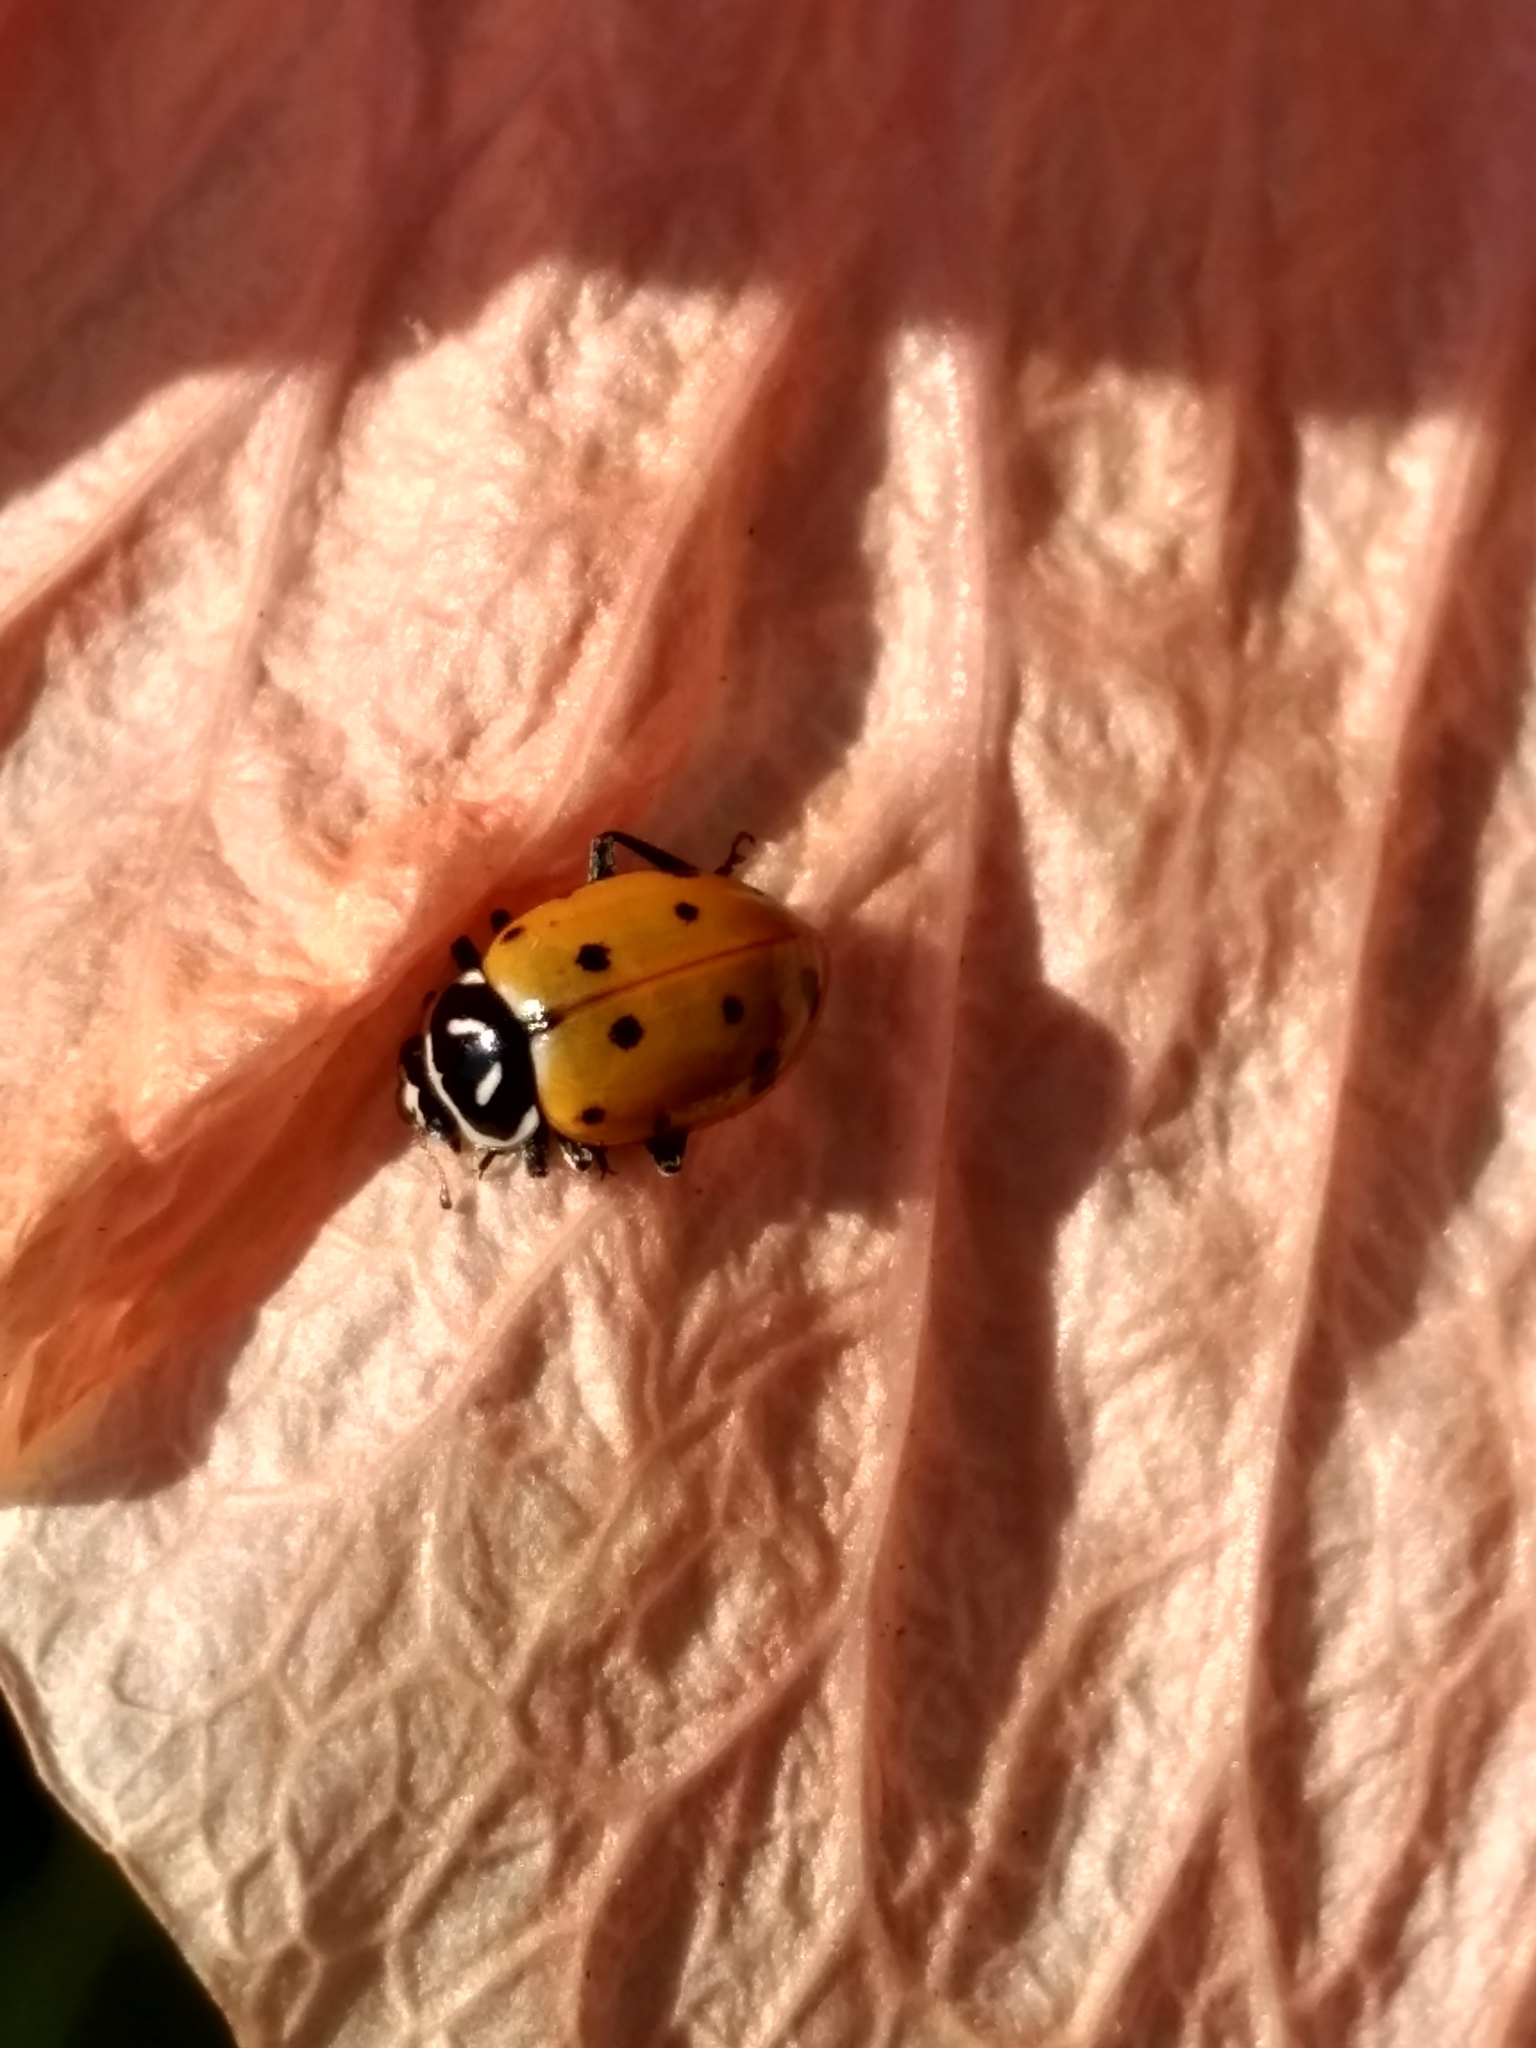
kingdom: Animalia
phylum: Arthropoda
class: Insecta
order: Coleoptera
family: Coccinellidae
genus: Hippodamia
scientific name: Hippodamia convergens
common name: Convergent lady beetle
